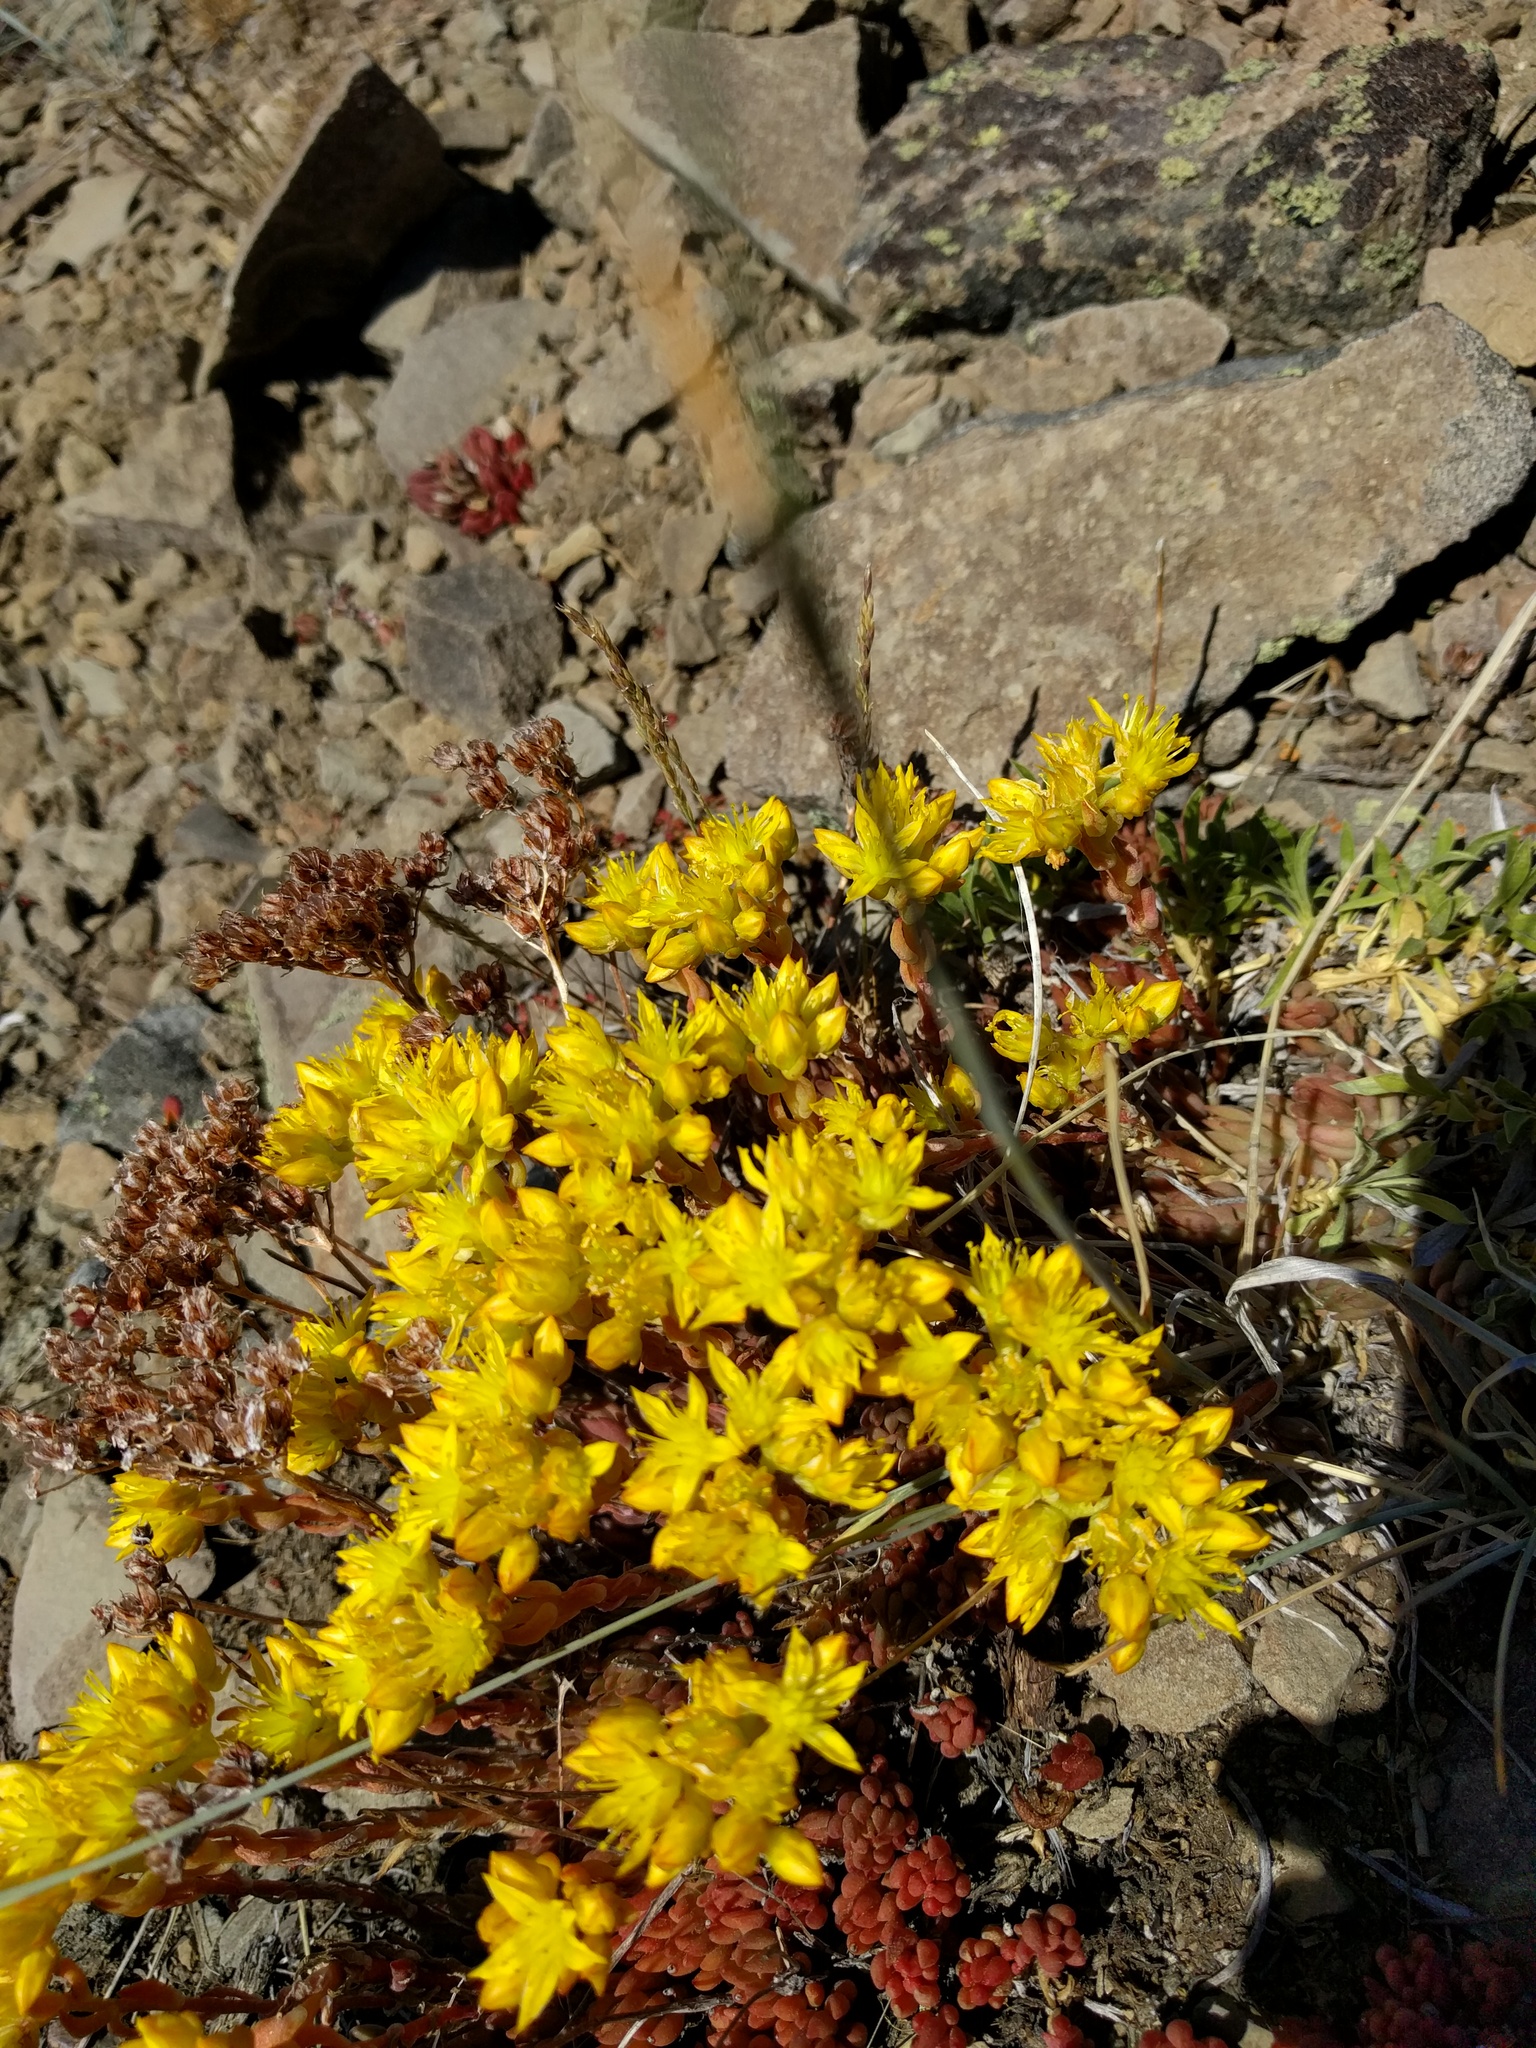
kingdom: Plantae
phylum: Tracheophyta
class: Magnoliopsida
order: Saxifragales
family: Crassulaceae
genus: Sedum
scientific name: Sedum lanceolatum
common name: Common stonecrop
